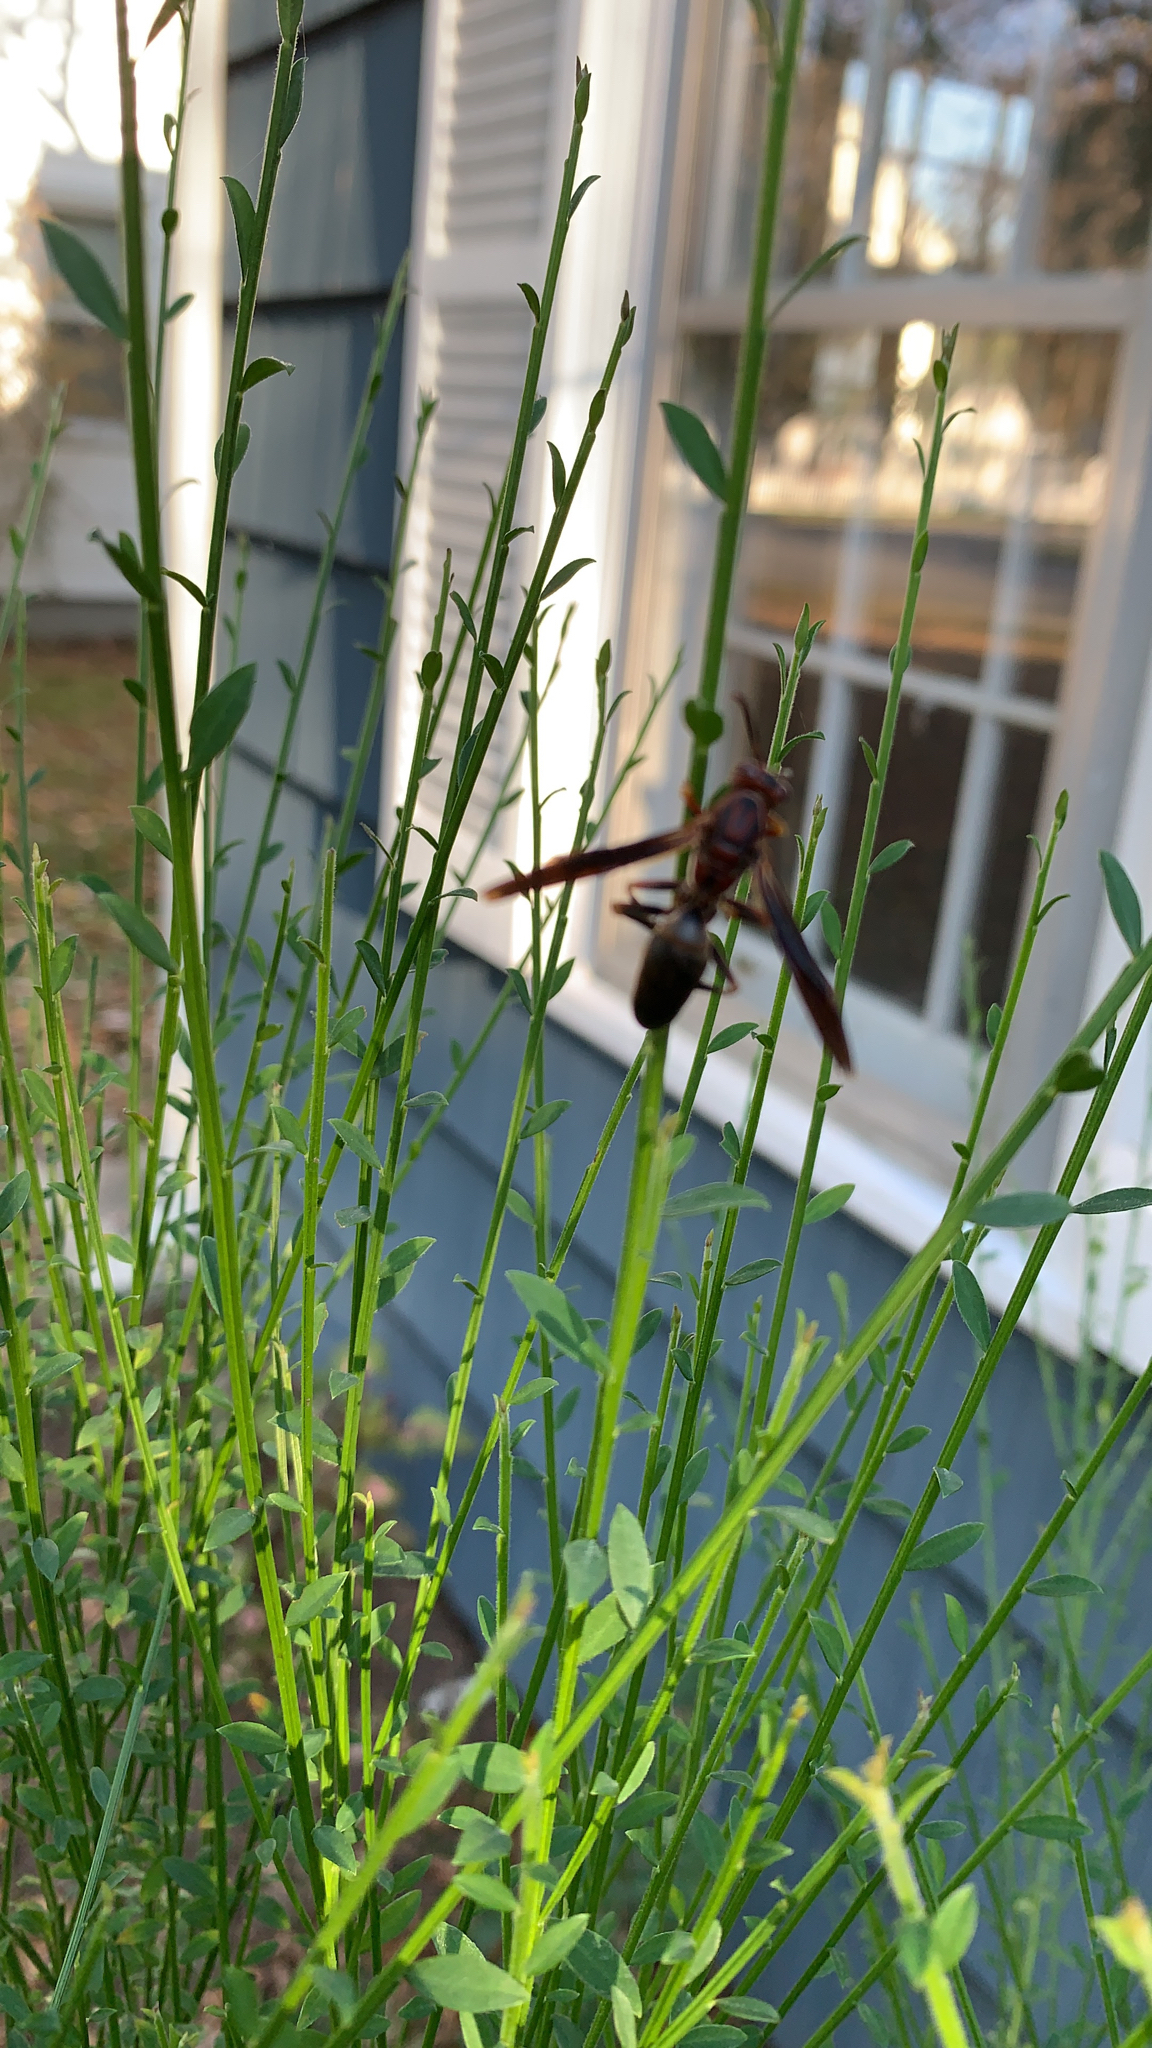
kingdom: Animalia
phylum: Arthropoda
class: Insecta
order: Hymenoptera
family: Eumenidae
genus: Polistes
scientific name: Polistes metricus
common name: Metric paper wasp
